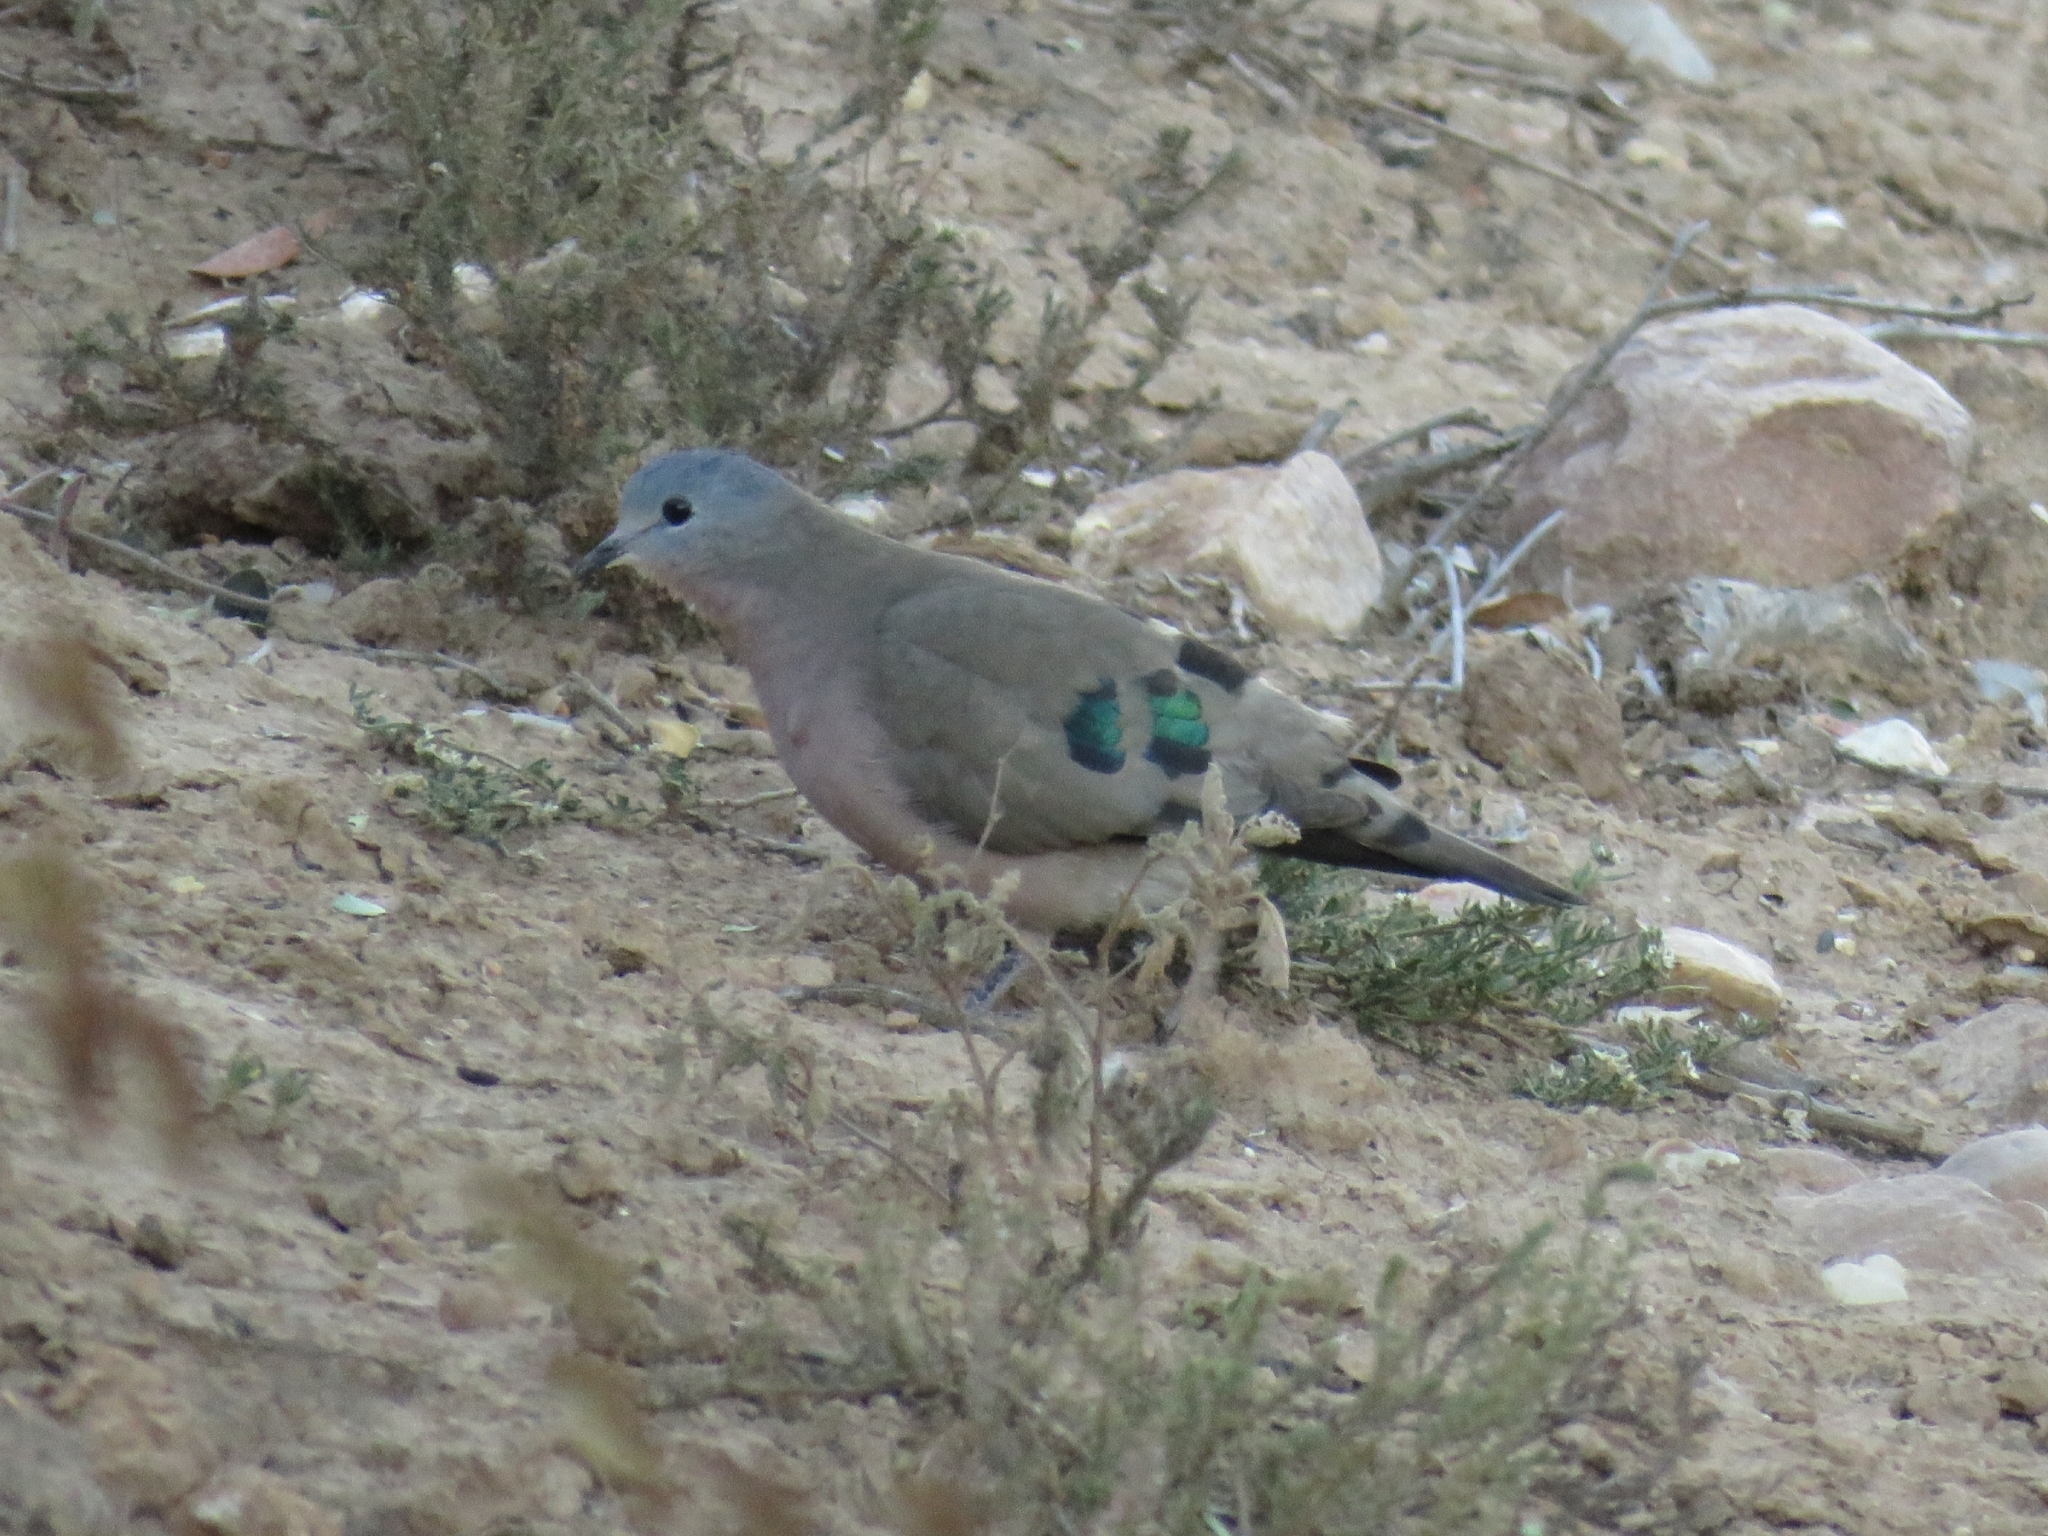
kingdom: Animalia
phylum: Chordata
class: Aves
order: Columbiformes
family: Columbidae
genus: Turtur
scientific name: Turtur chalcospilos
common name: Emerald-spotted wood dove
